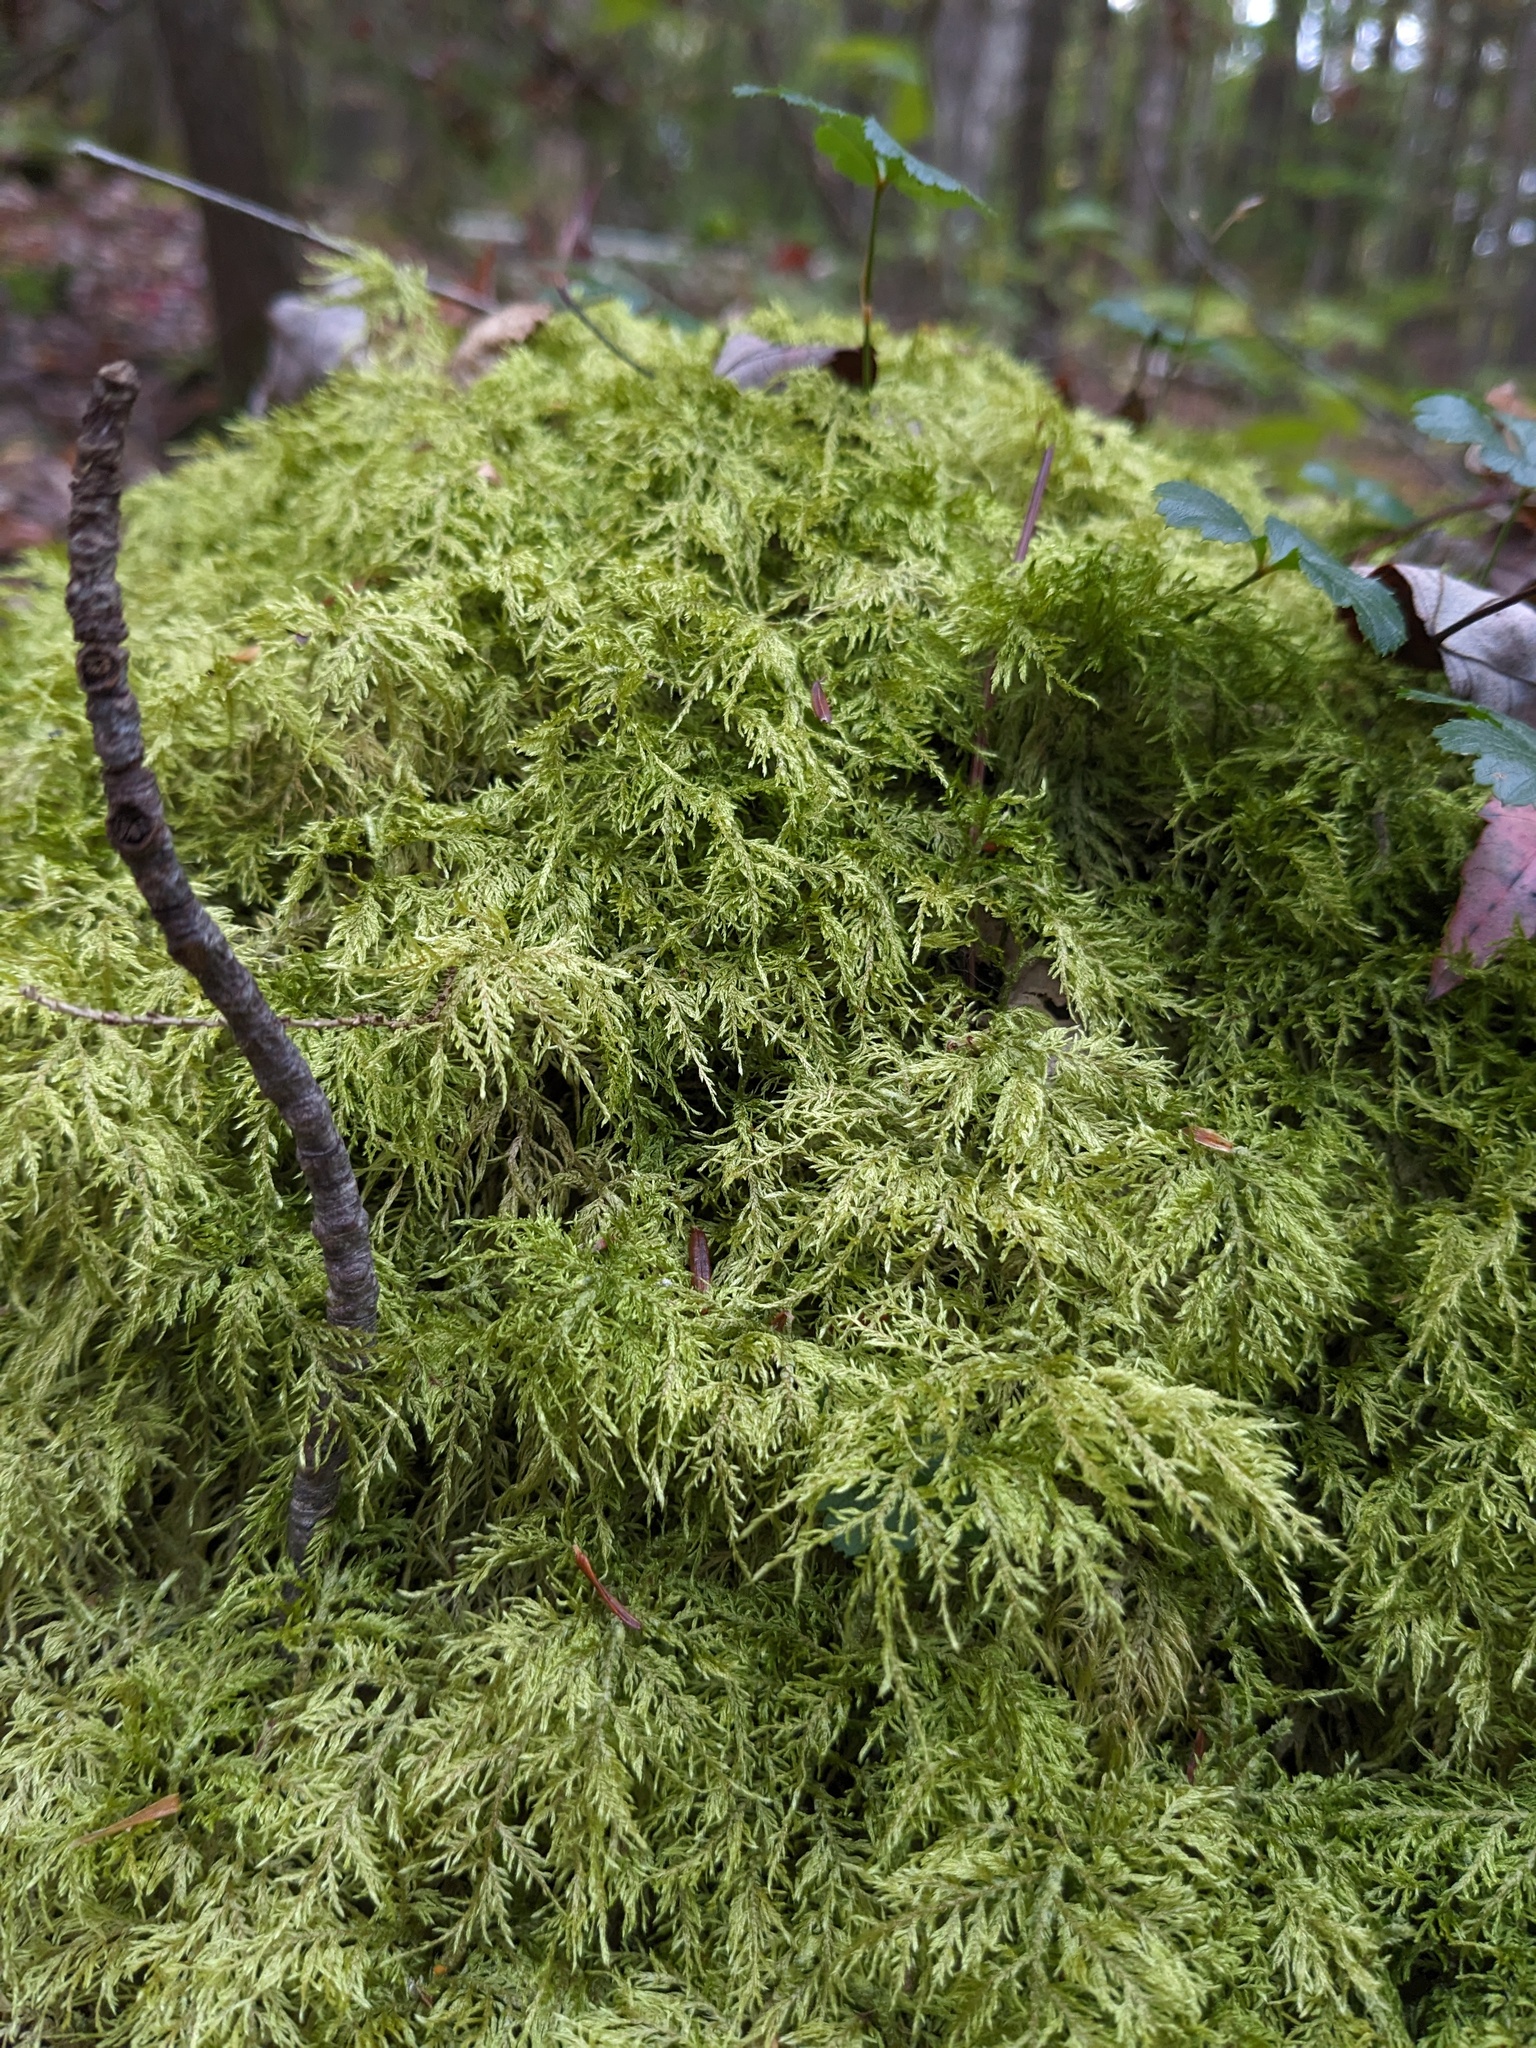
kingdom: Plantae
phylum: Bryophyta
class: Bryopsida
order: Hypnales
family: Hylocomiaceae
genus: Hylocomium
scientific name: Hylocomium splendens
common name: Stairstep moss
